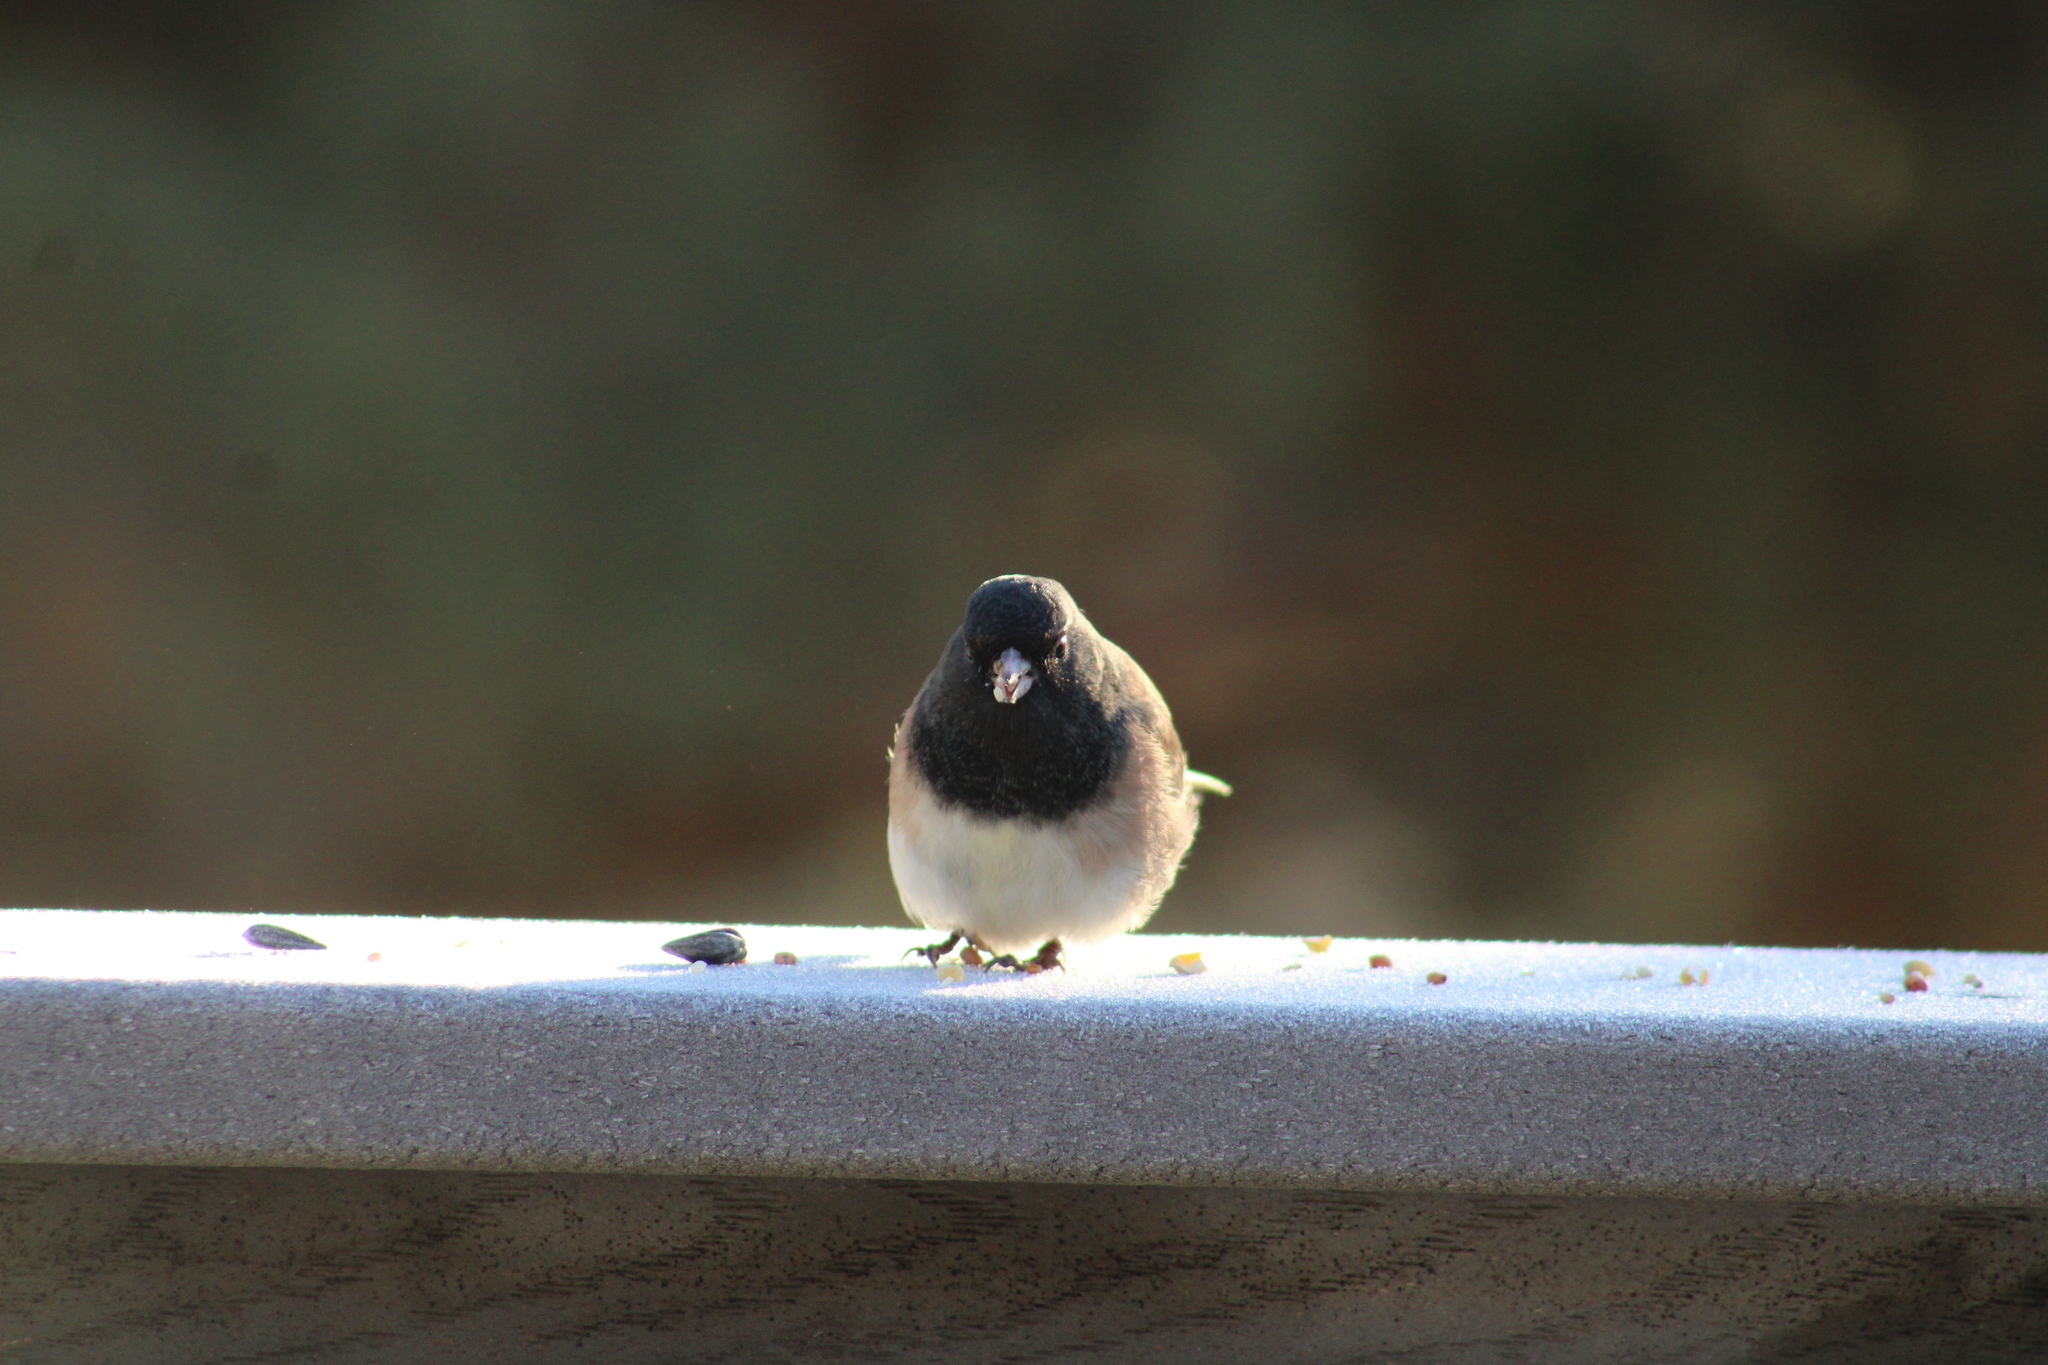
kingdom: Animalia
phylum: Chordata
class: Aves
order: Passeriformes
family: Passerellidae
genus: Junco
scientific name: Junco hyemalis
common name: Dark-eyed junco
